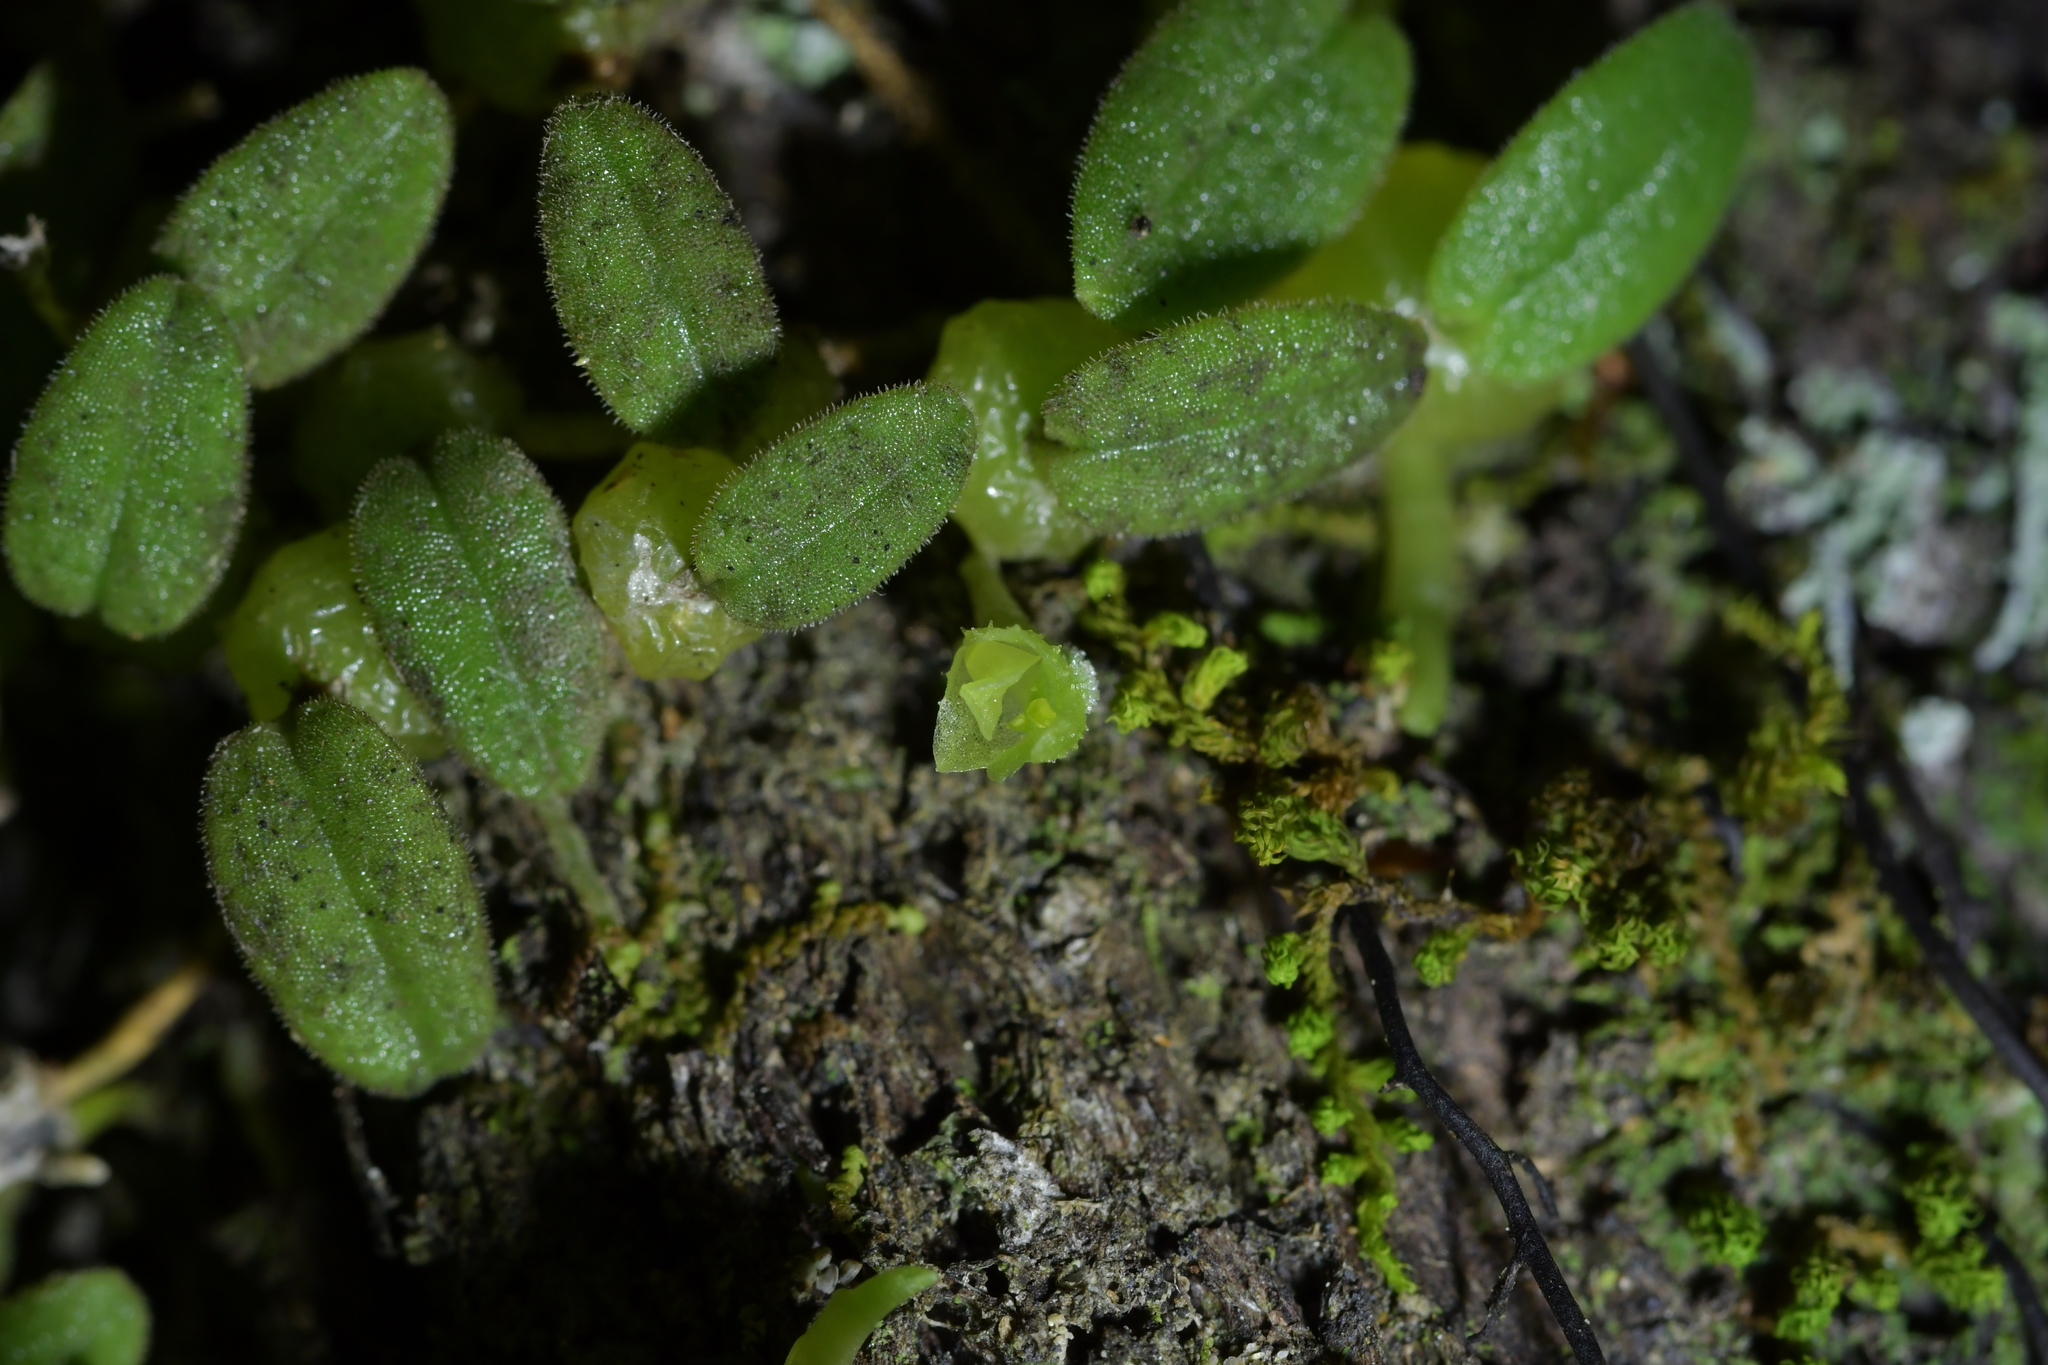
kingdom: Plantae
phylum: Tracheophyta
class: Liliopsida
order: Asparagales
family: Orchidaceae
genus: Bulbophyllum
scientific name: Bulbophyllum pygmaeum
